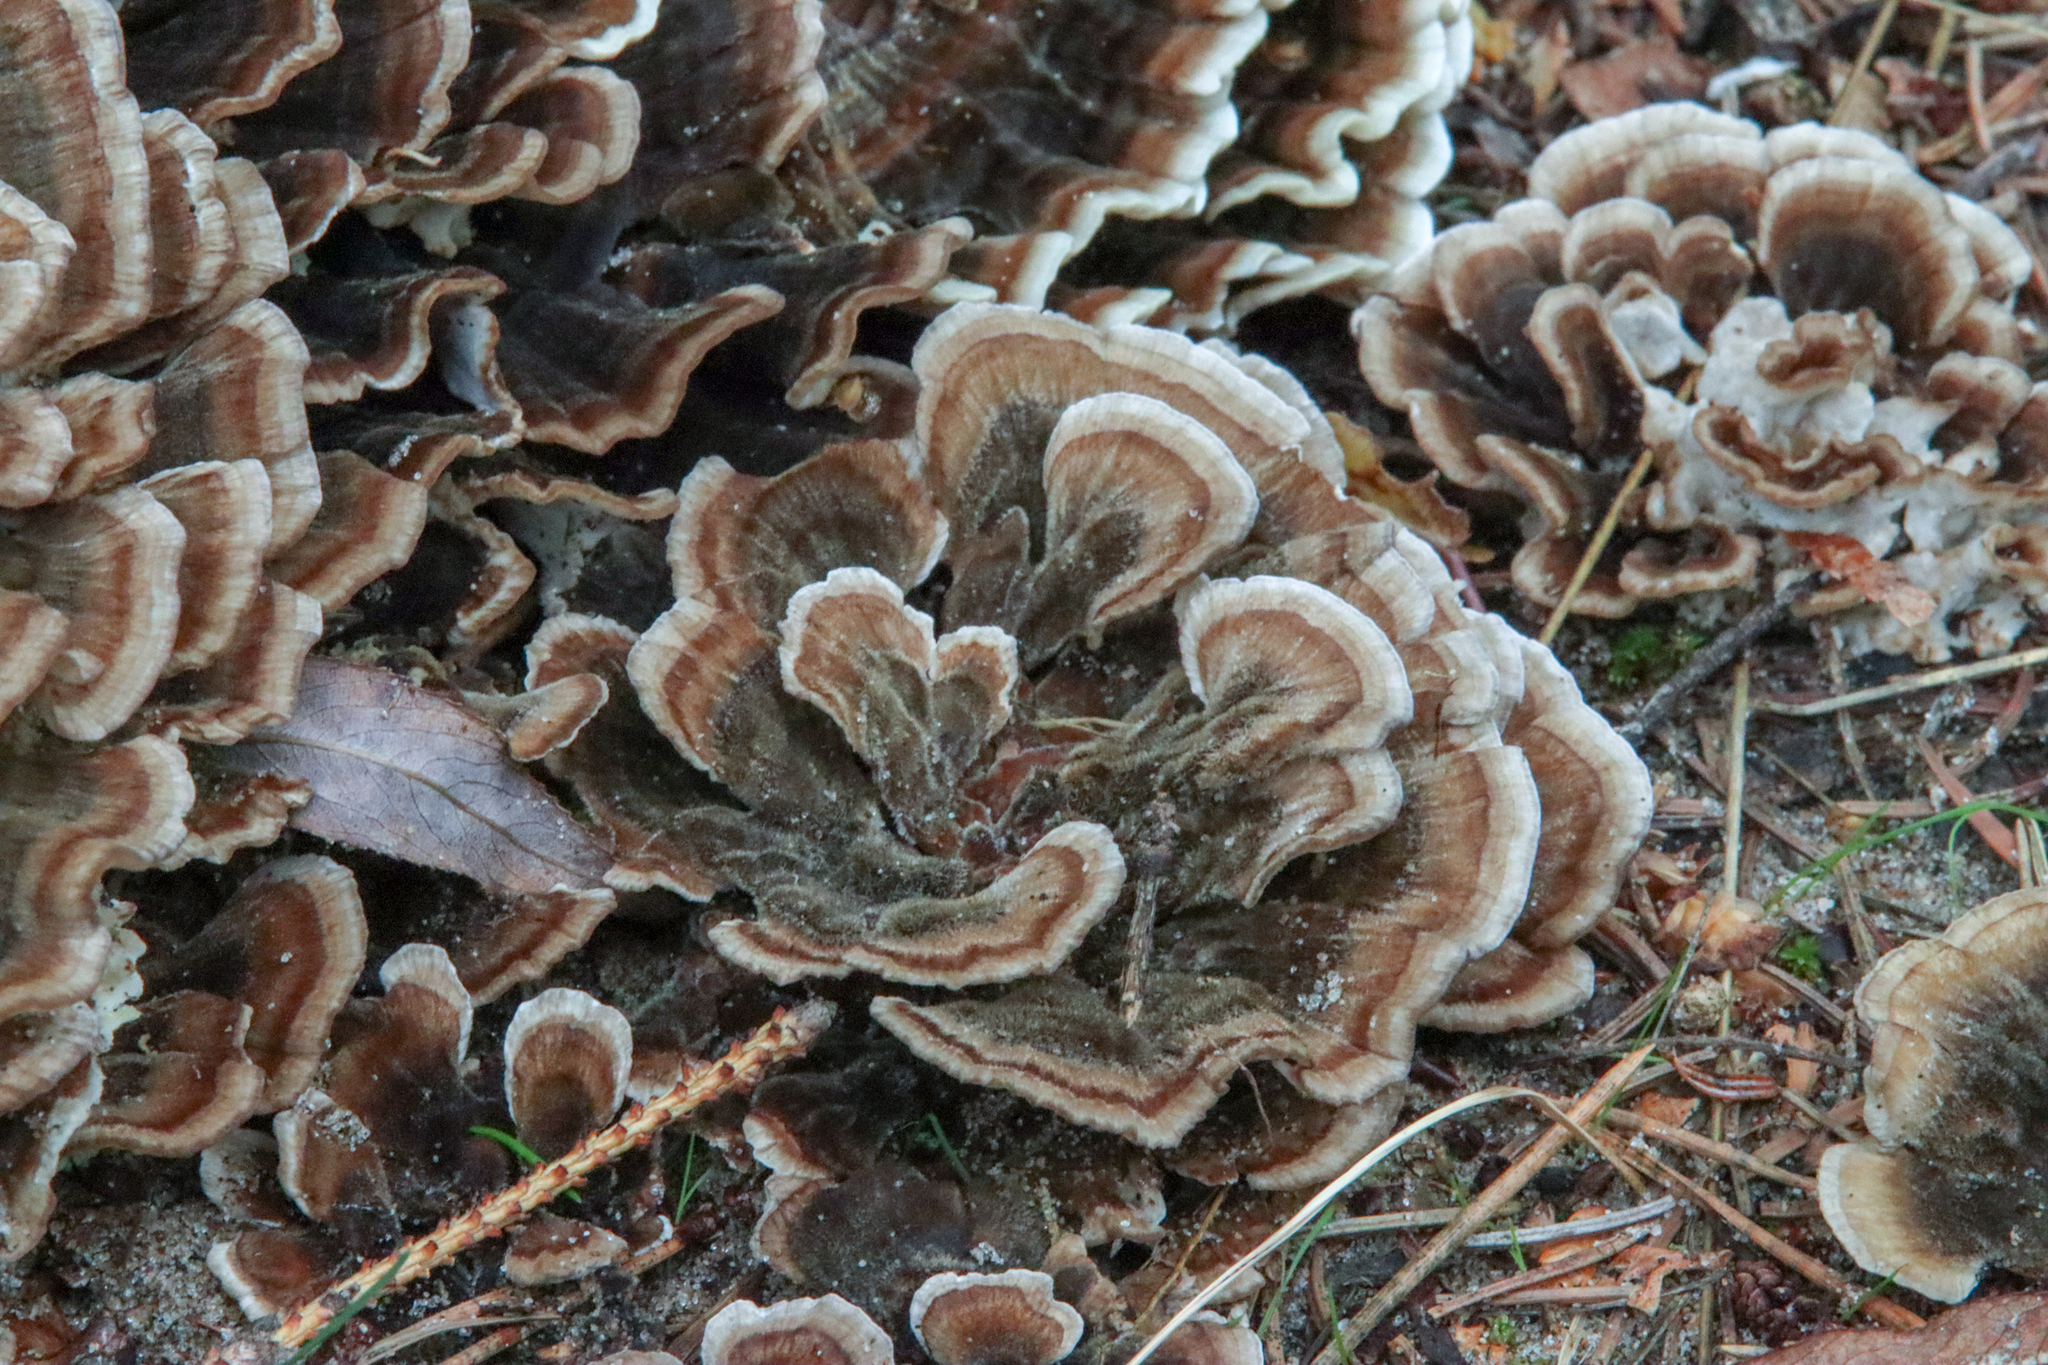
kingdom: Fungi
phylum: Basidiomycota
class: Agaricomycetes
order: Polyporales
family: Polyporaceae
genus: Trametes
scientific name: Trametes versicolor
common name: Turkeytail
